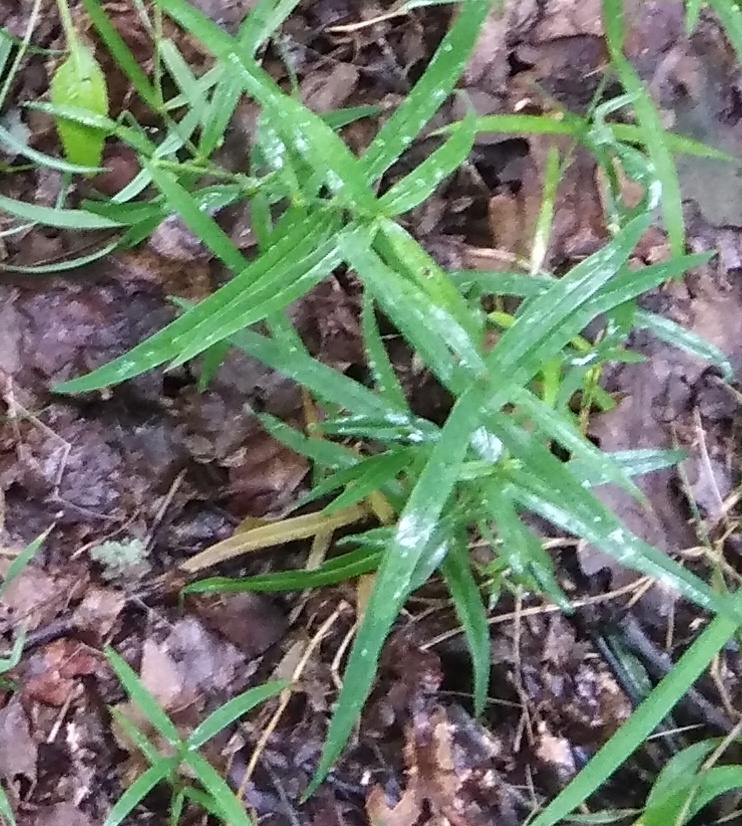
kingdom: Plantae
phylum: Tracheophyta
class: Magnoliopsida
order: Caryophyllales
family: Caryophyllaceae
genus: Rabelera
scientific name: Rabelera holostea
